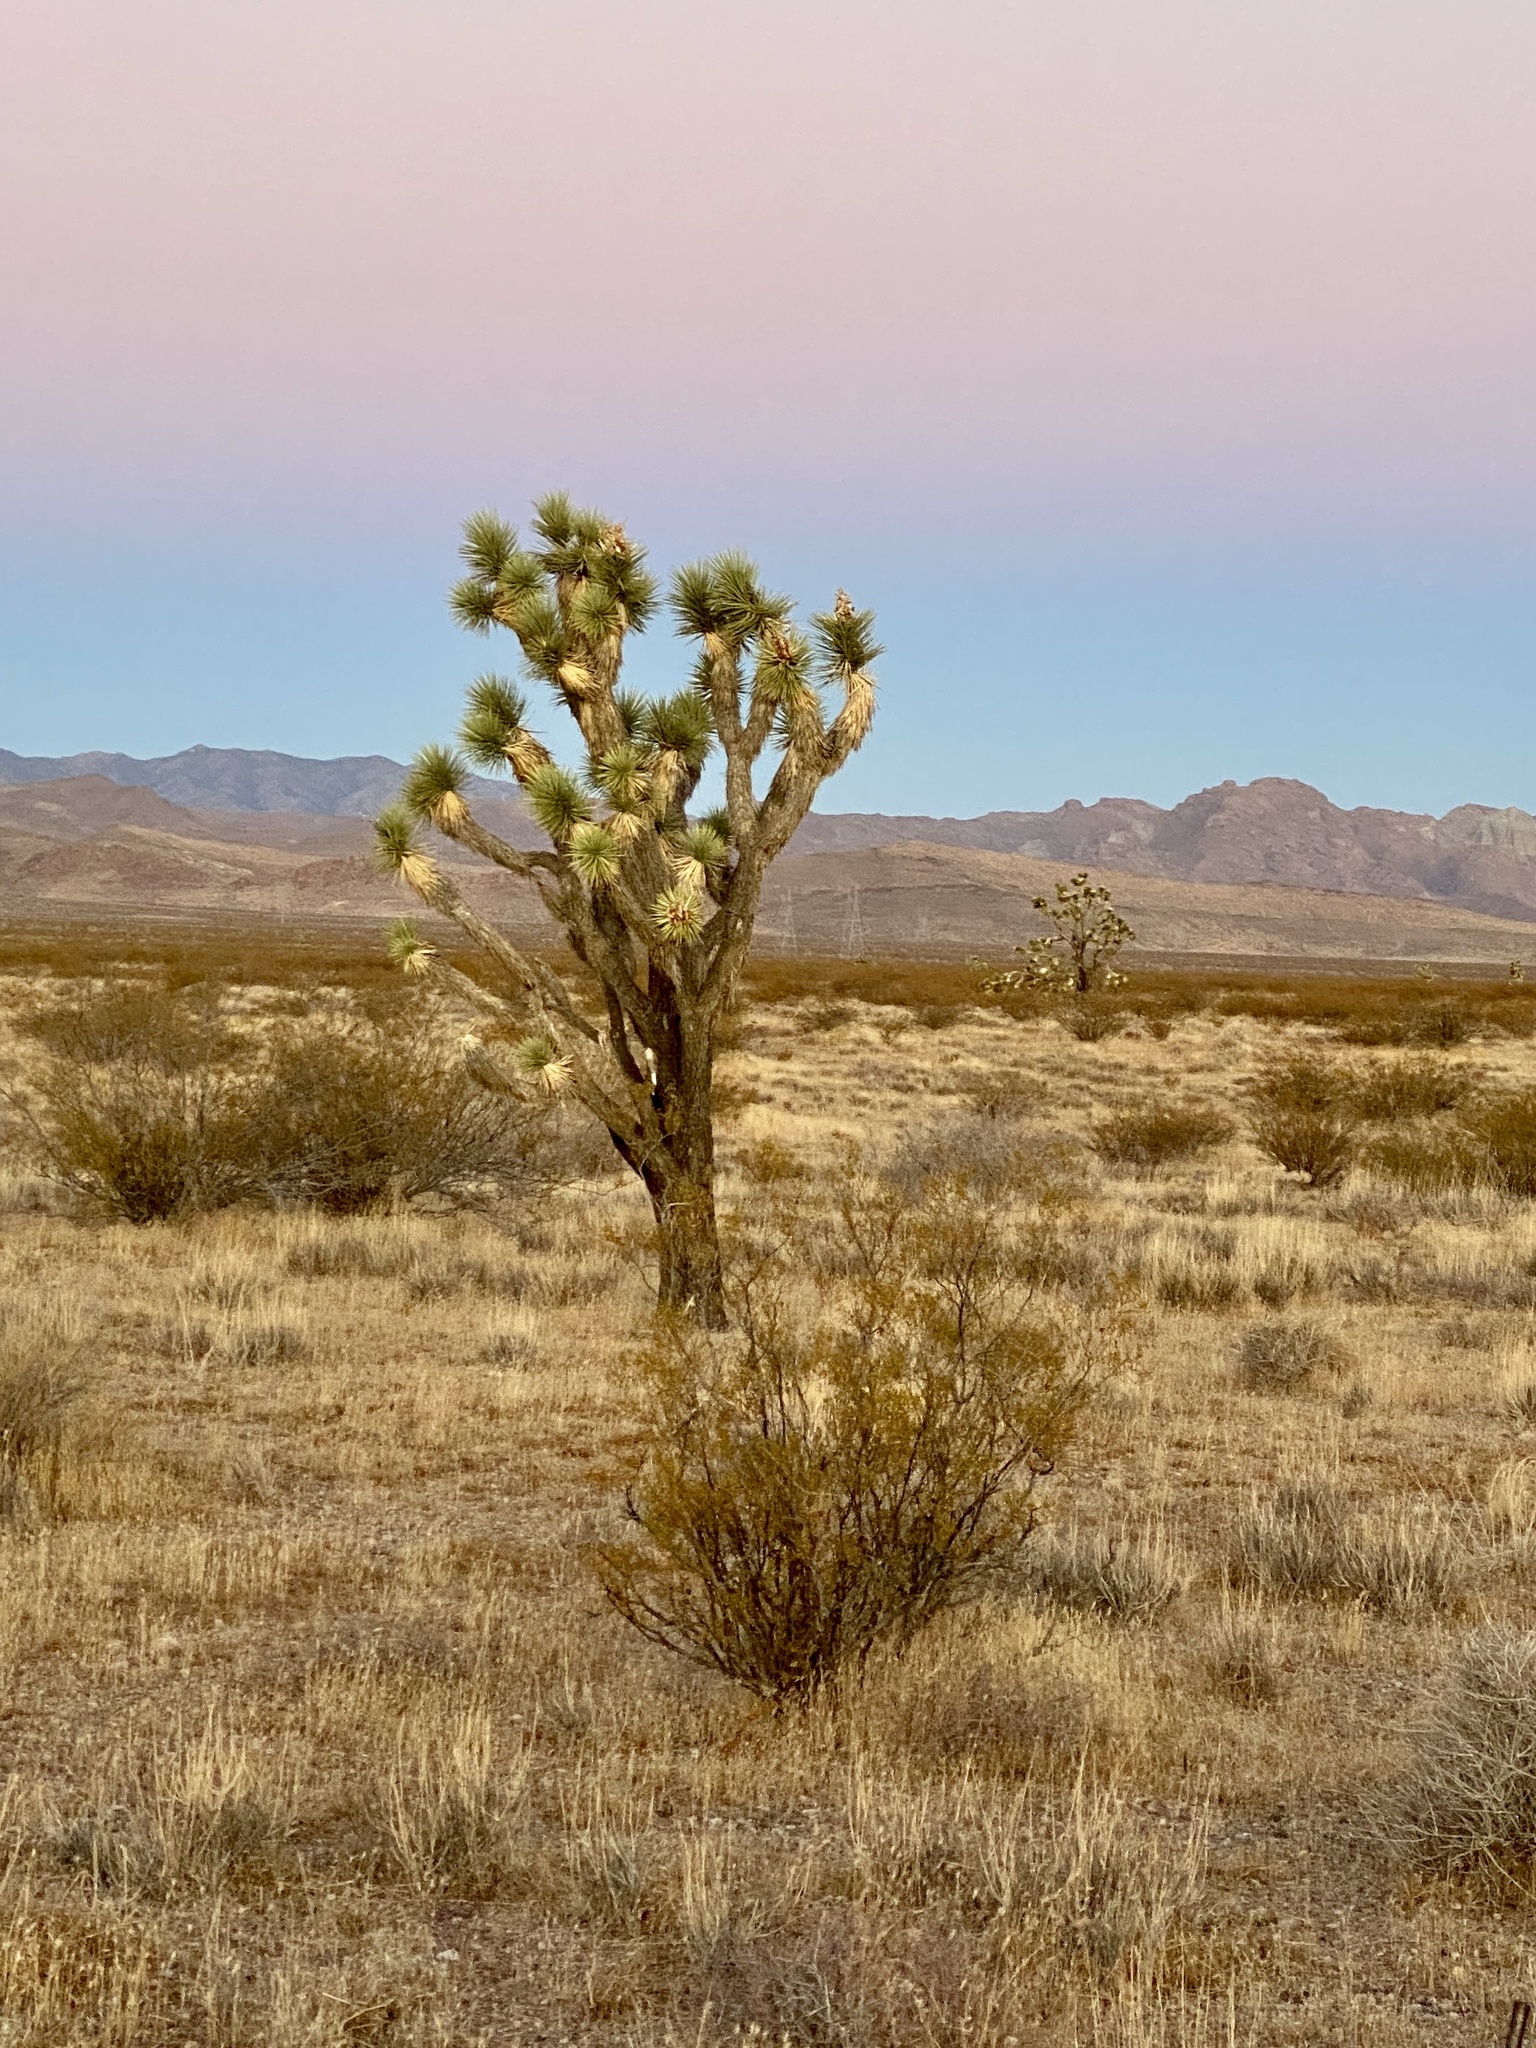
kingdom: Plantae
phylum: Tracheophyta
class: Liliopsida
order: Asparagales
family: Asparagaceae
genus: Yucca
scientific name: Yucca brevifolia
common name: Joshua tree
